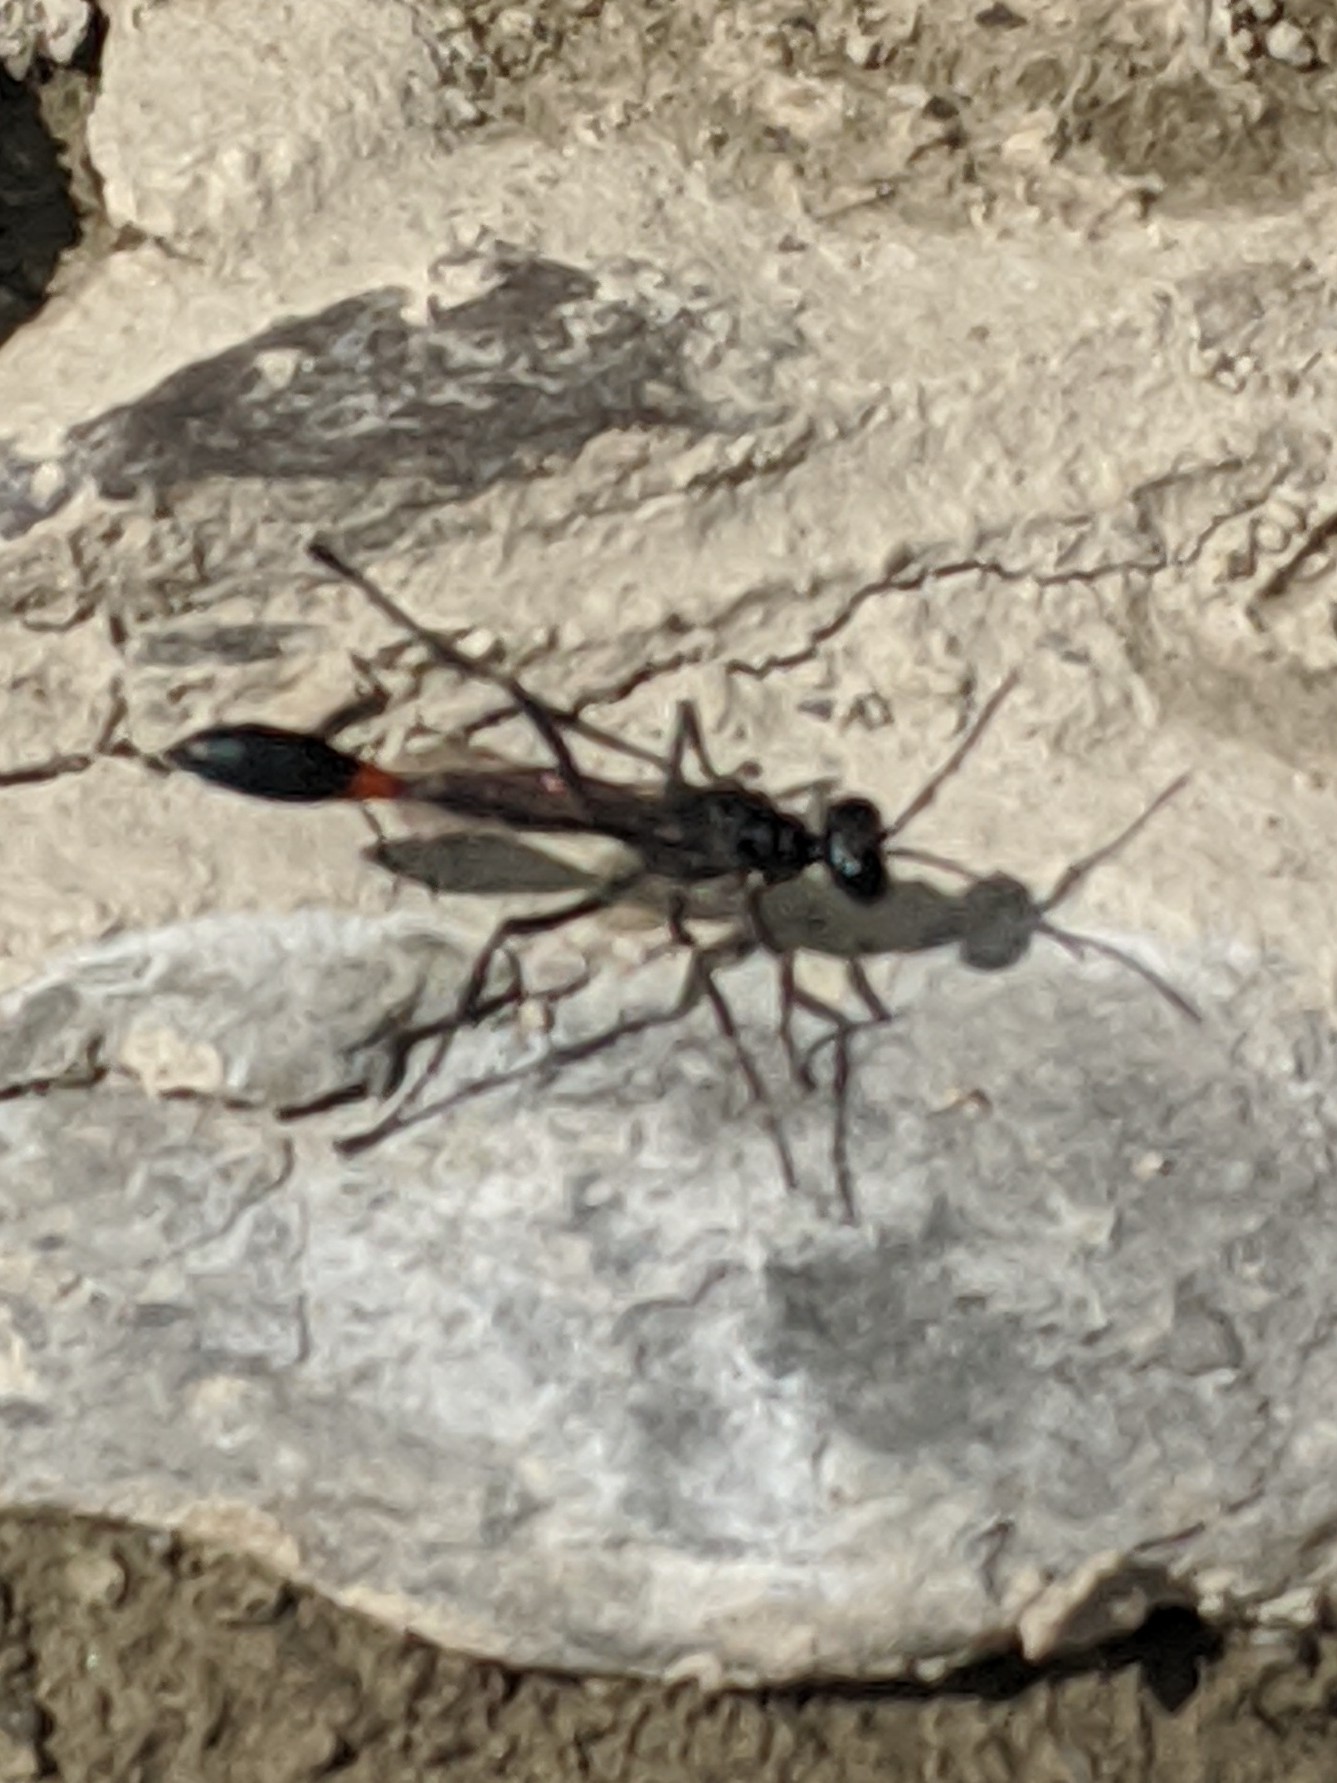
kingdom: Animalia
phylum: Arthropoda
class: Insecta
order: Hymenoptera
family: Sphecidae
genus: Ammophila
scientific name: Ammophila procera
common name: Common thread-waisted wasp
